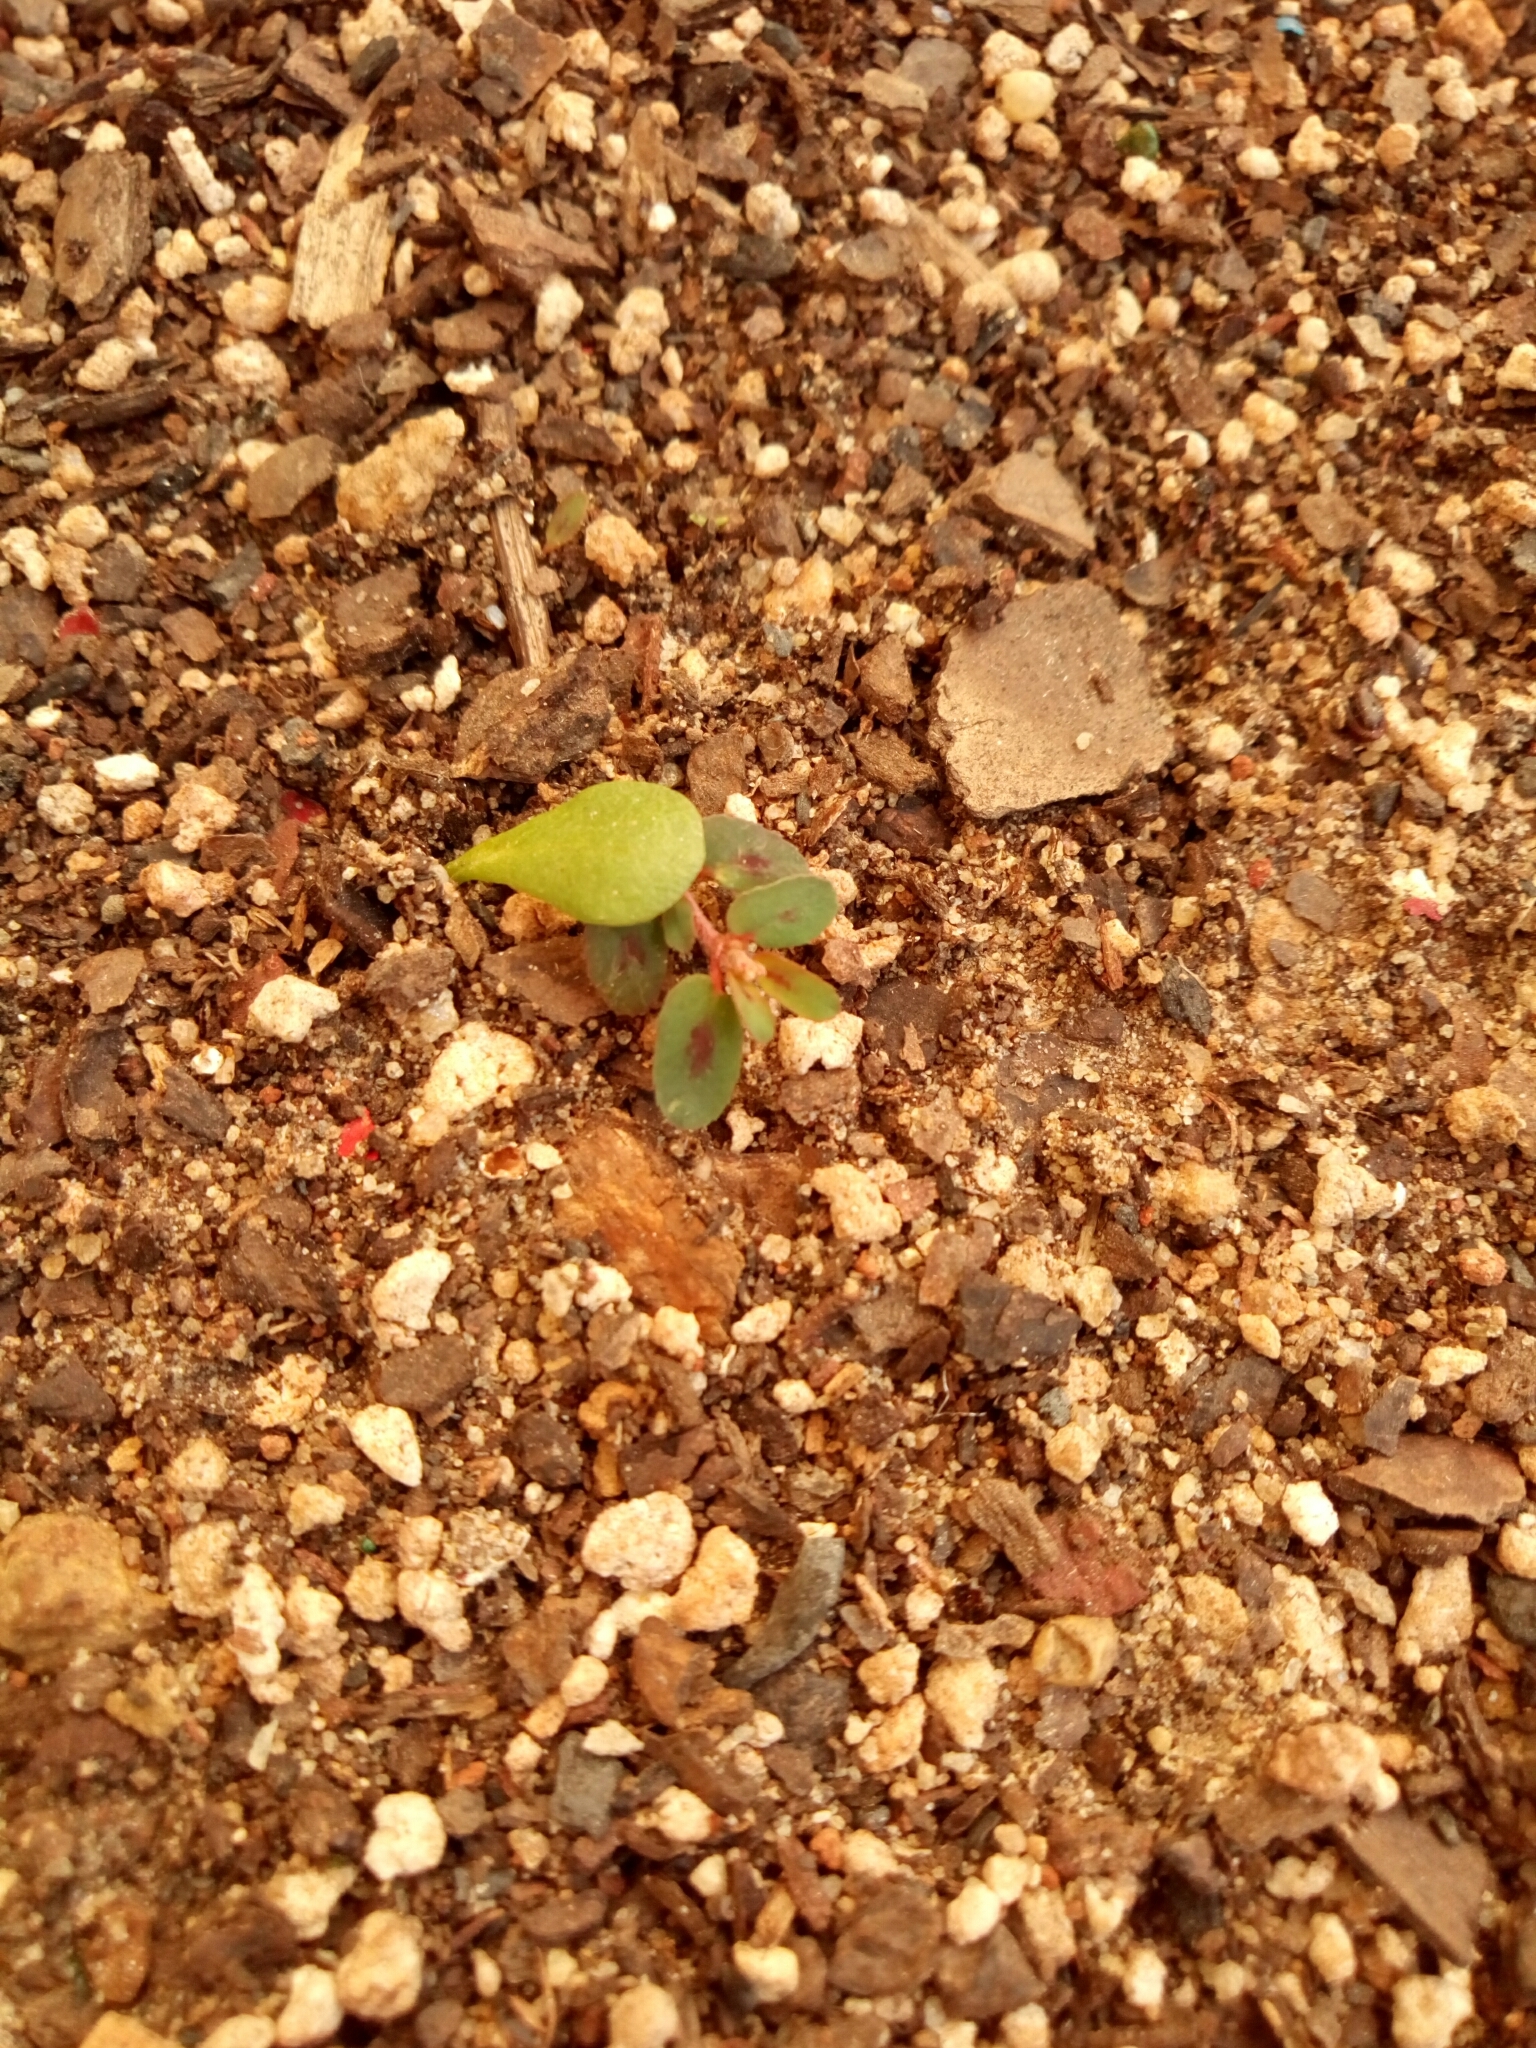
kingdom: Plantae
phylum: Tracheophyta
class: Magnoliopsida
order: Malpighiales
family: Euphorbiaceae
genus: Euphorbia
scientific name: Euphorbia maculata
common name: Spotted spurge
